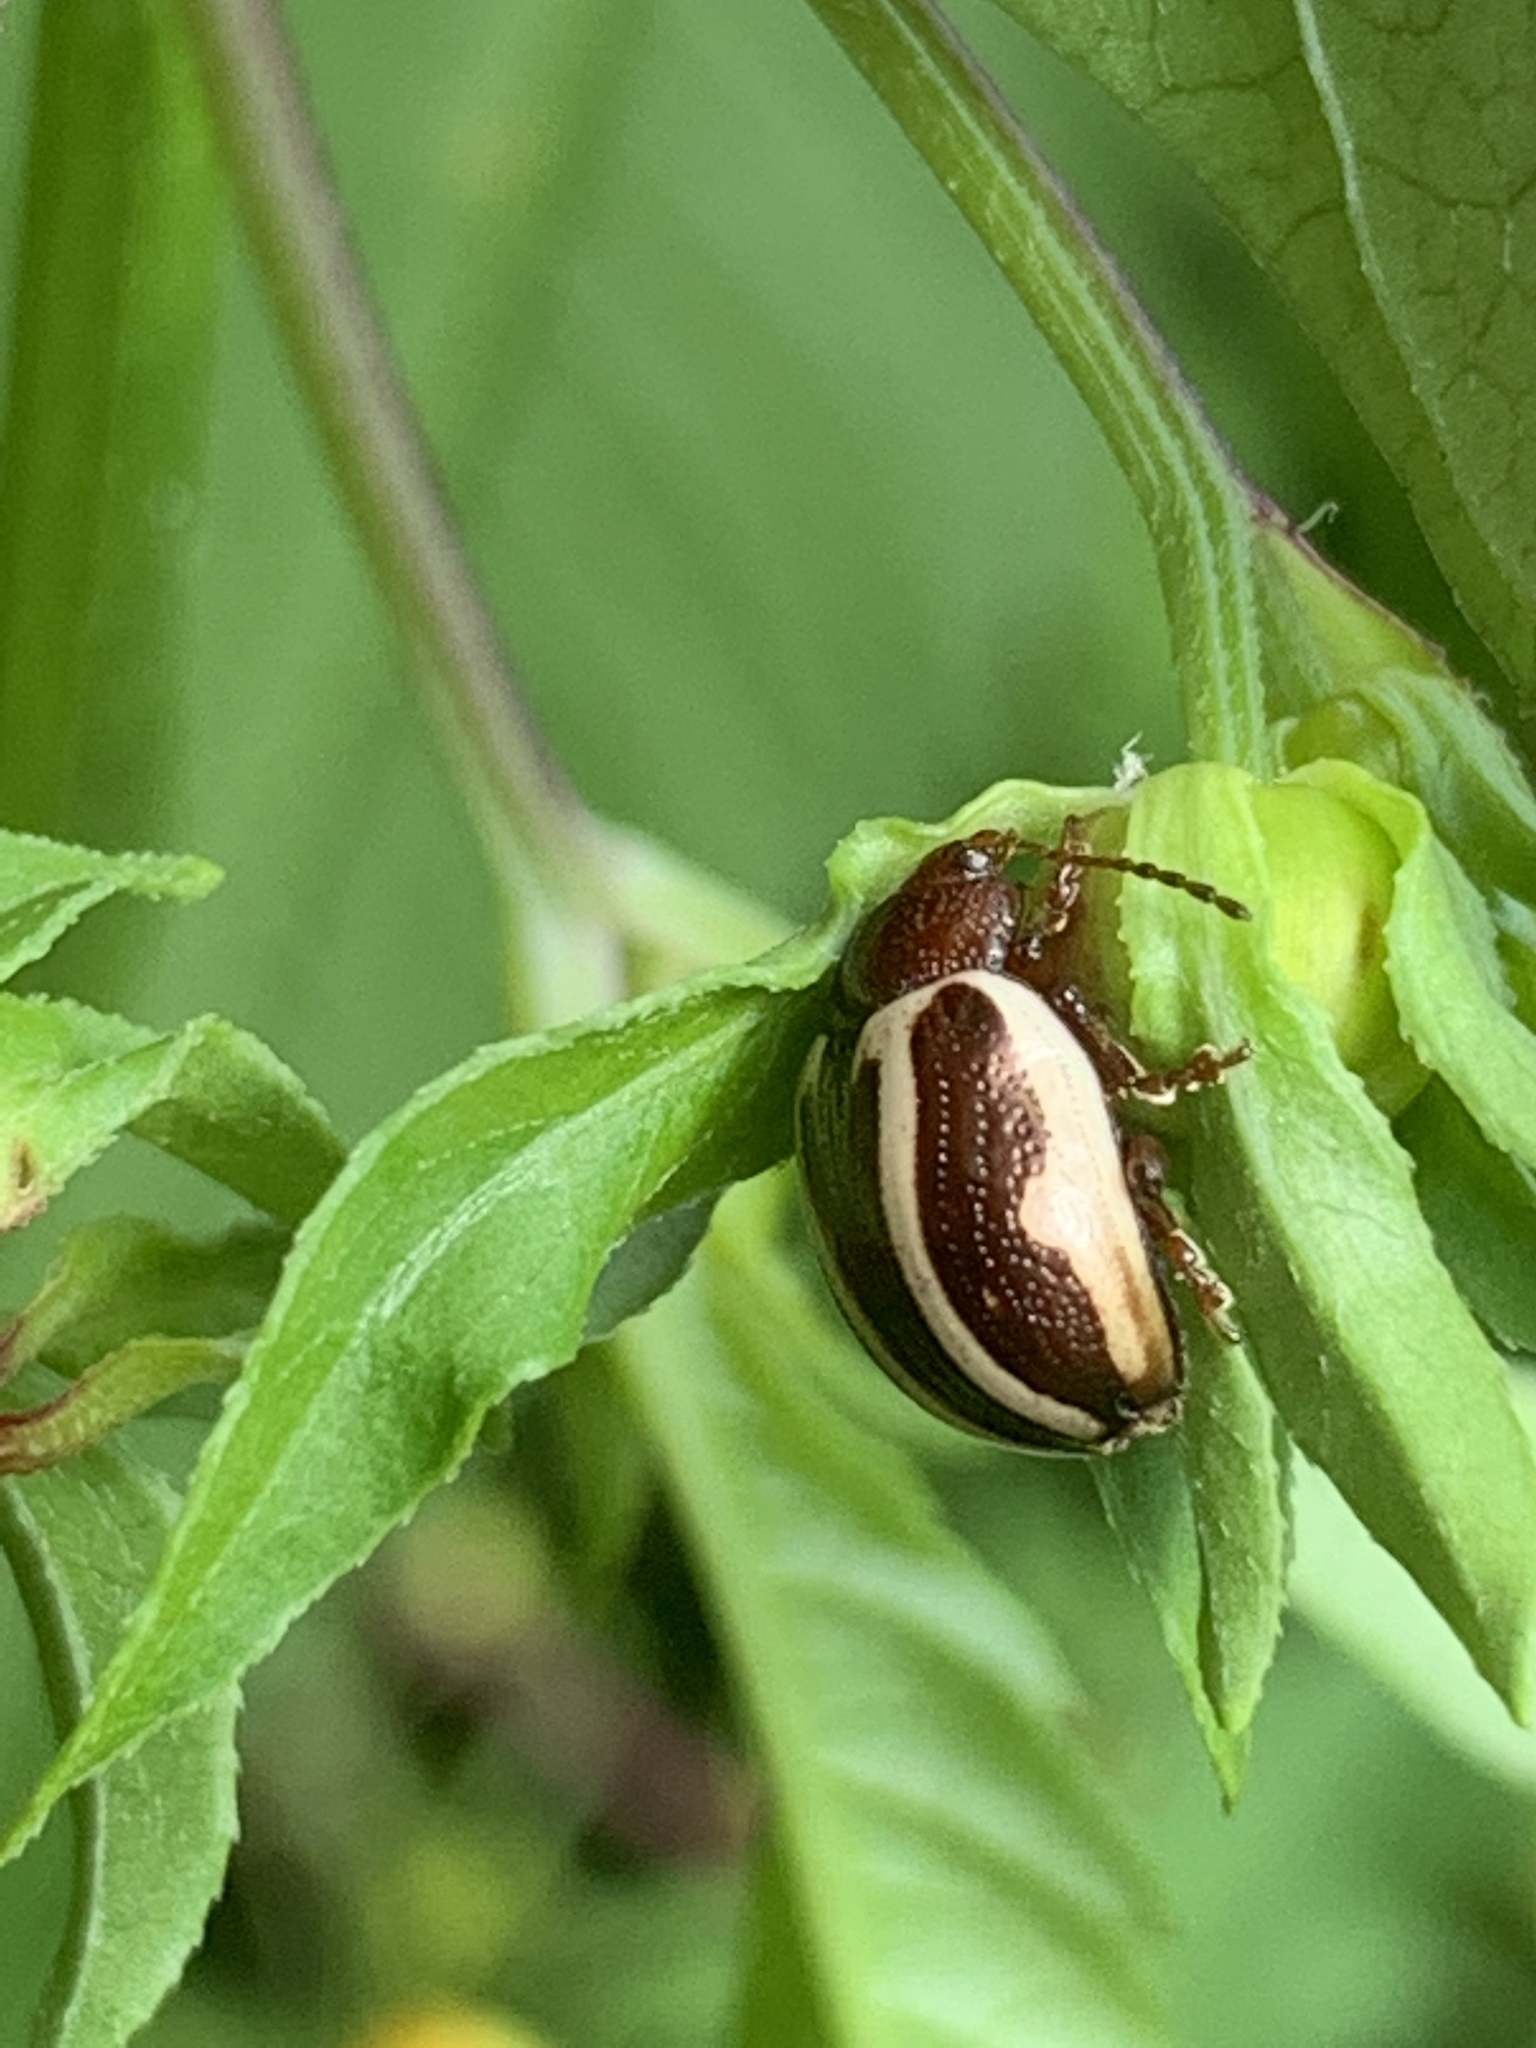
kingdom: Animalia
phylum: Arthropoda
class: Insecta
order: Coleoptera
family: Chrysomelidae
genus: Calligrapha
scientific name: Calligrapha bidenticola
